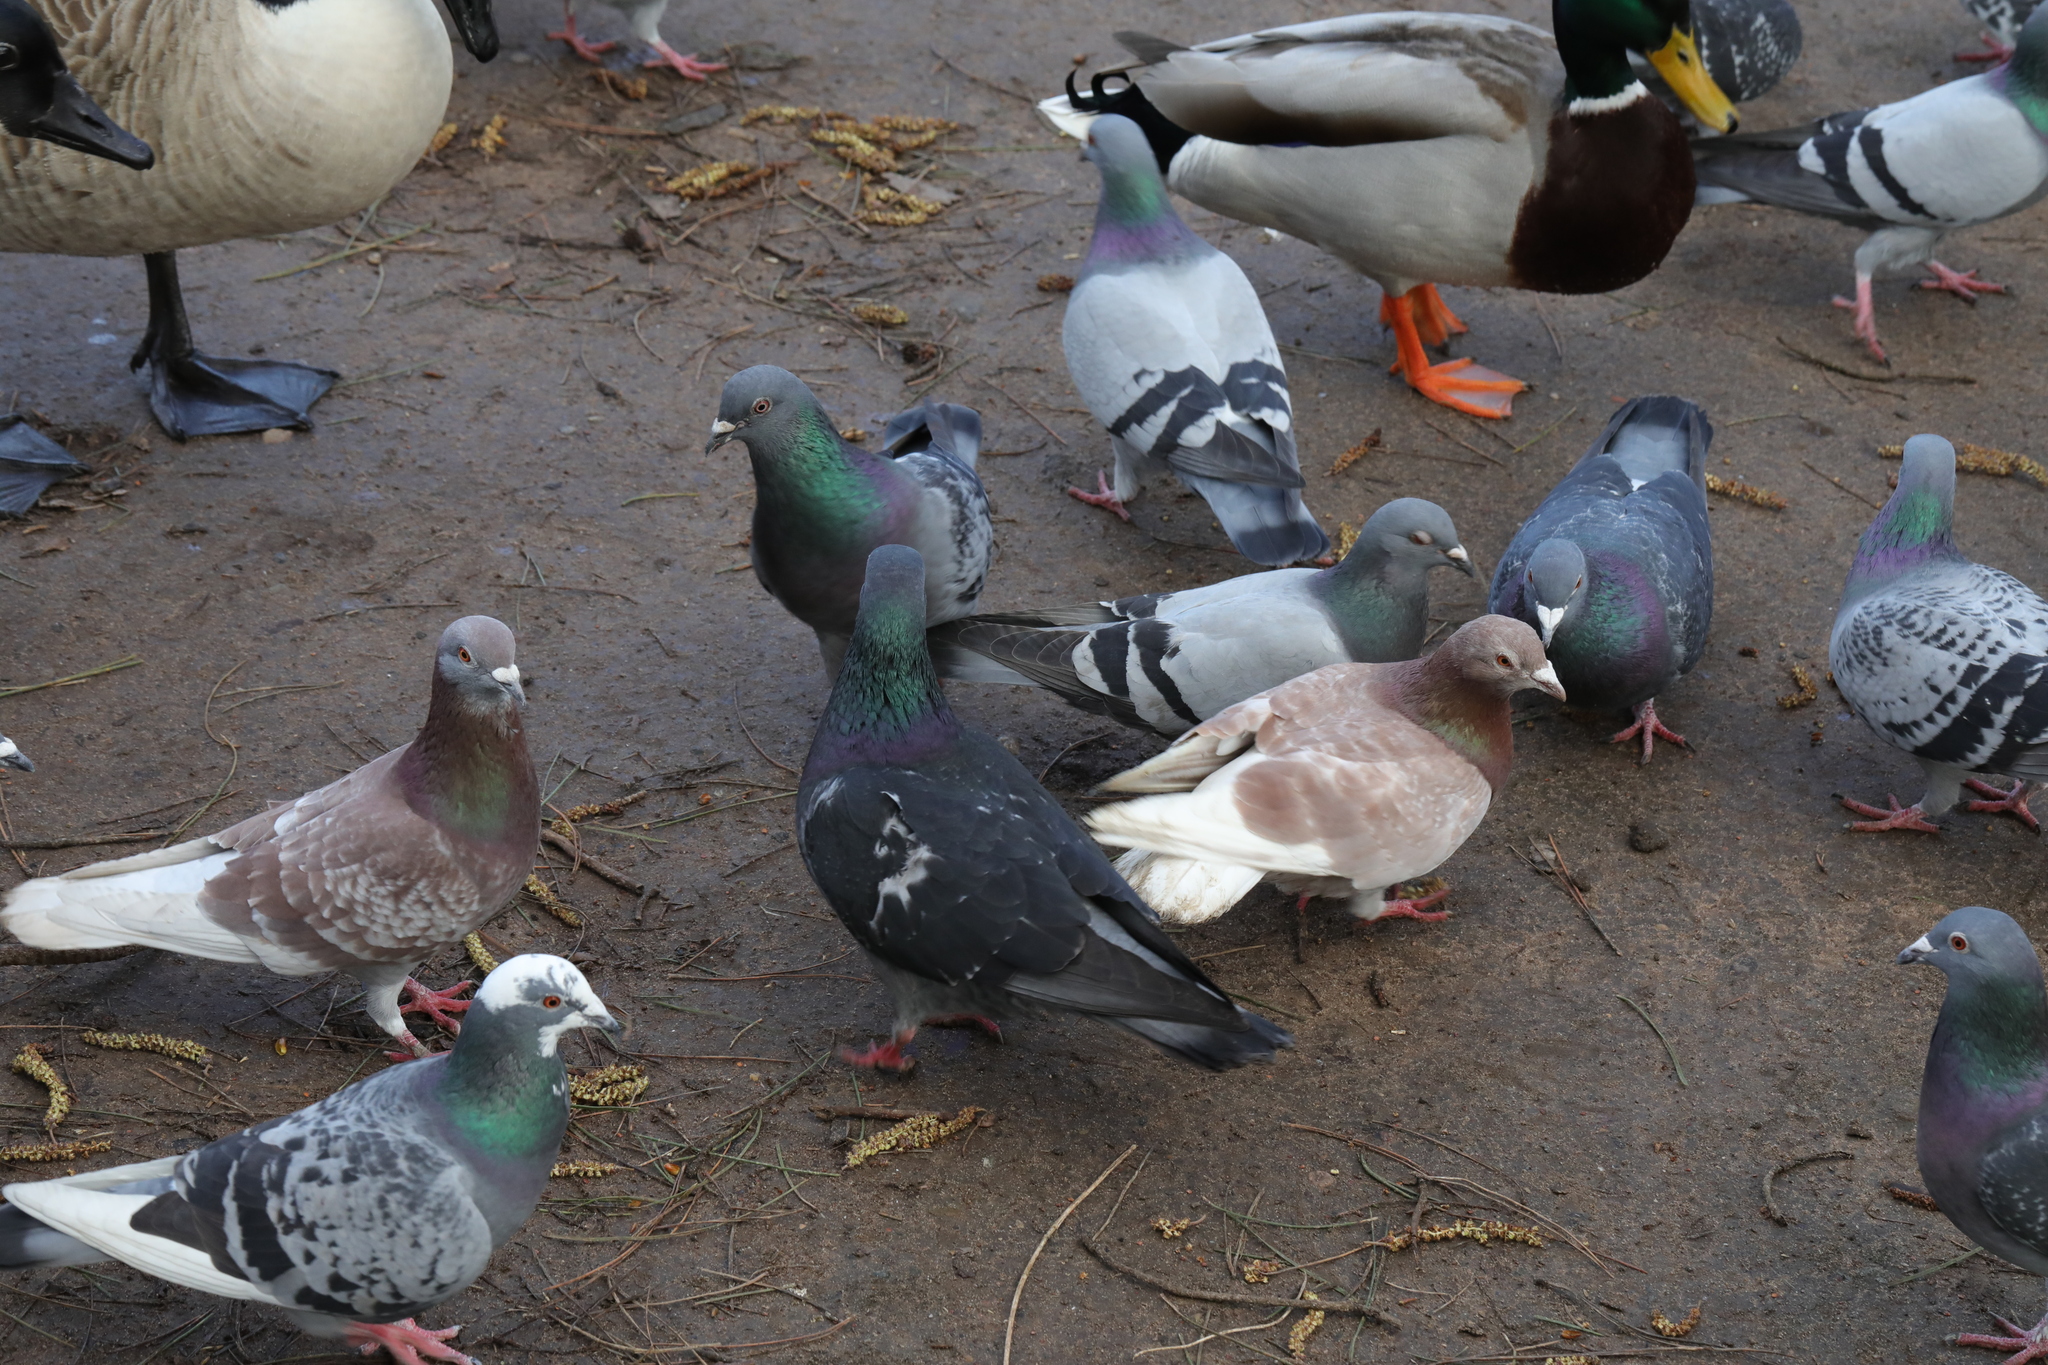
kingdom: Animalia
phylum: Chordata
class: Aves
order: Columbiformes
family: Columbidae
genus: Columba
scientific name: Columba livia
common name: Rock pigeon
